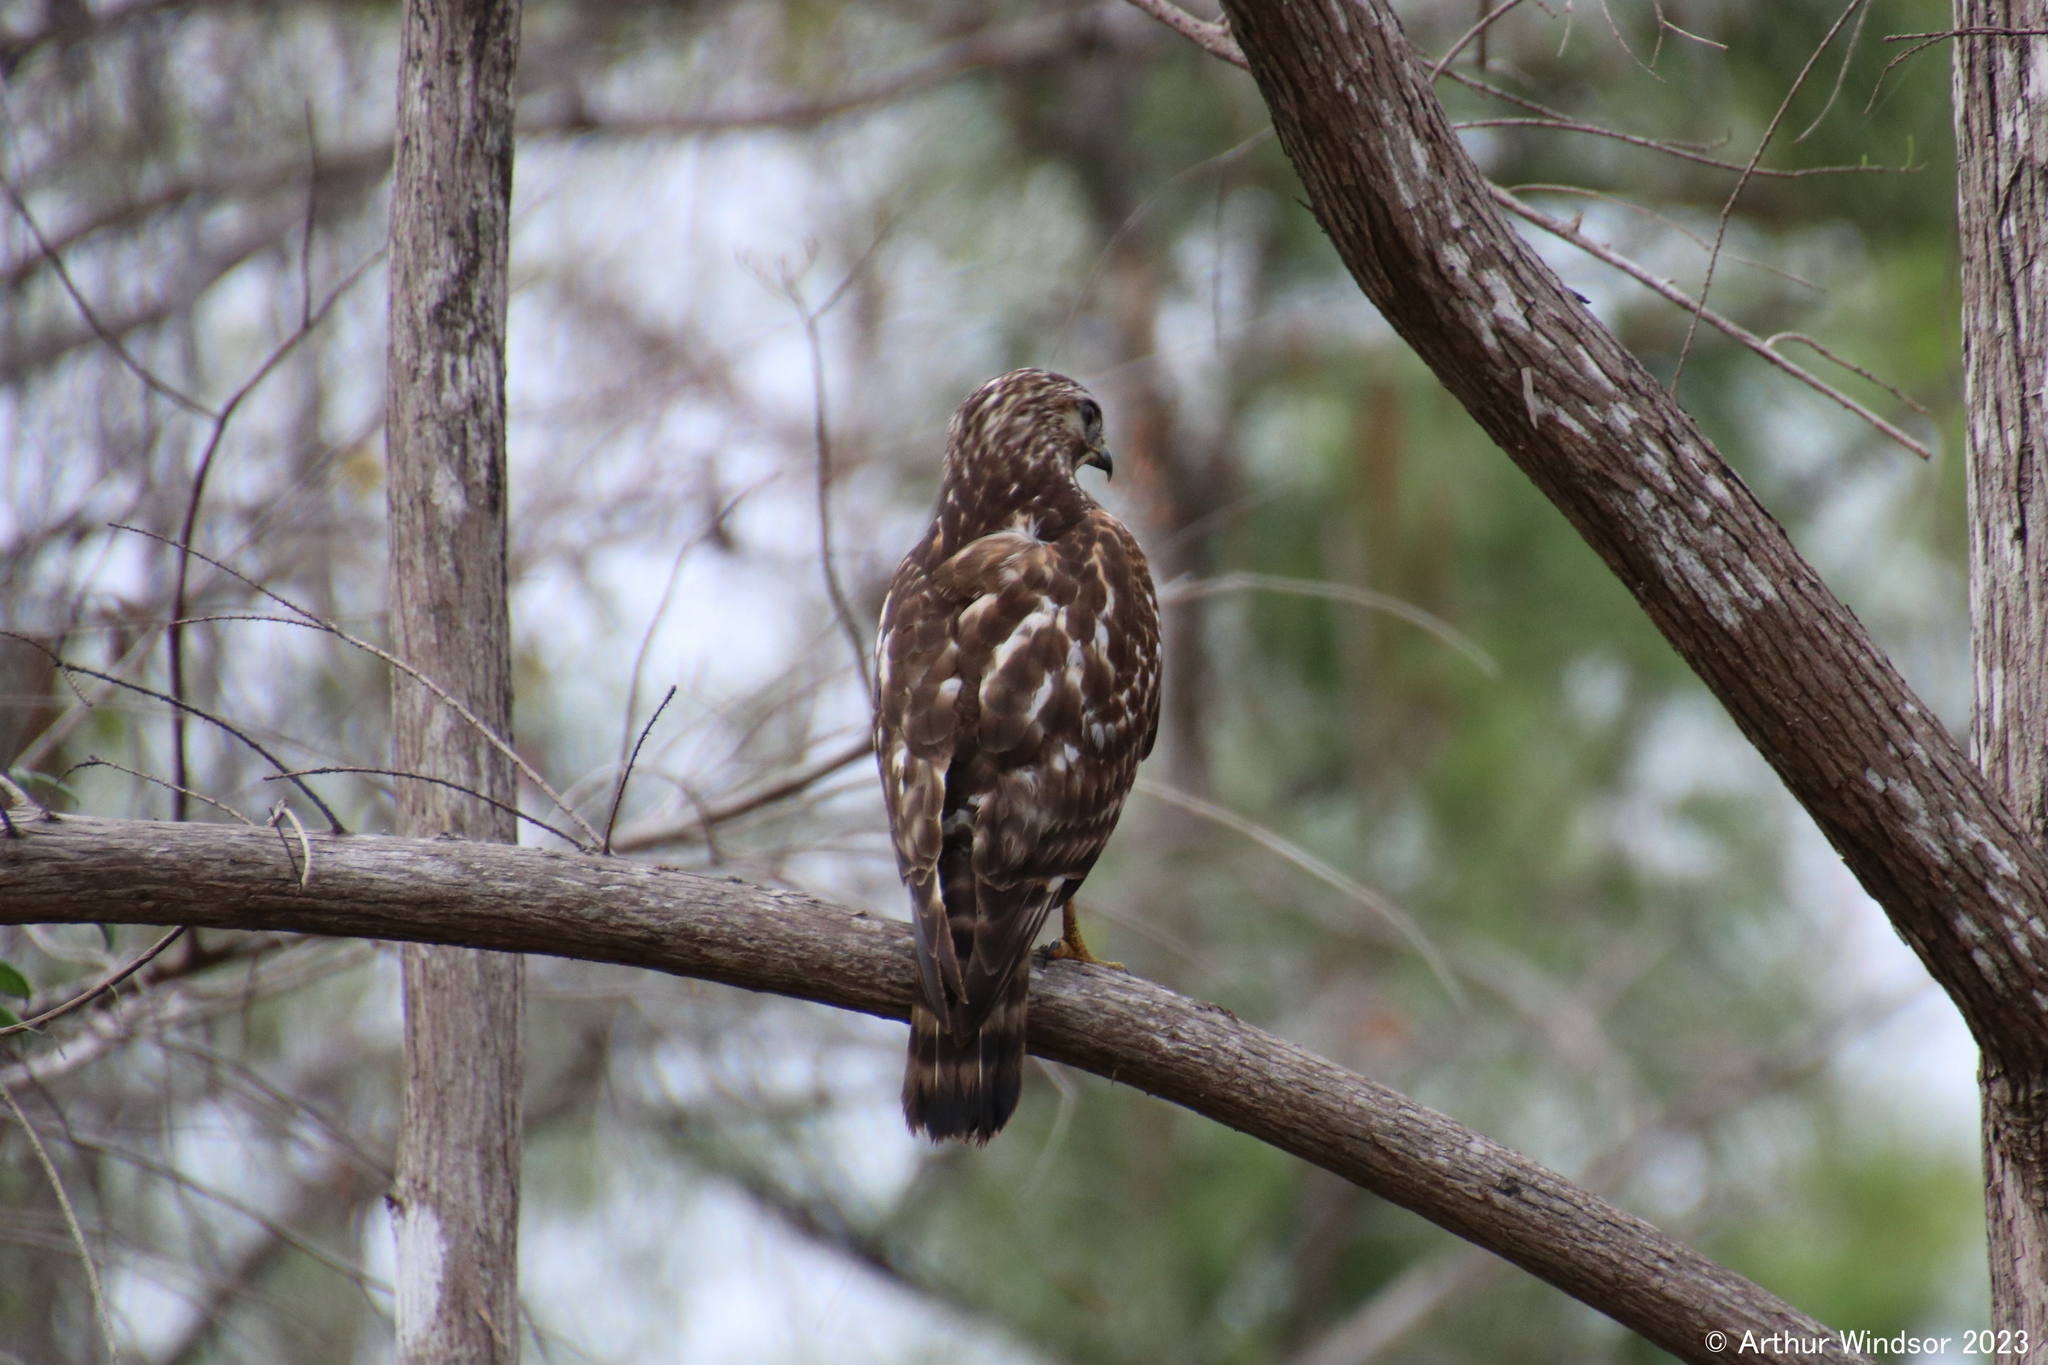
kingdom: Animalia
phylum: Chordata
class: Aves
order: Accipitriformes
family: Accipitridae
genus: Buteo
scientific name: Buteo lineatus
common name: Red-shouldered hawk
